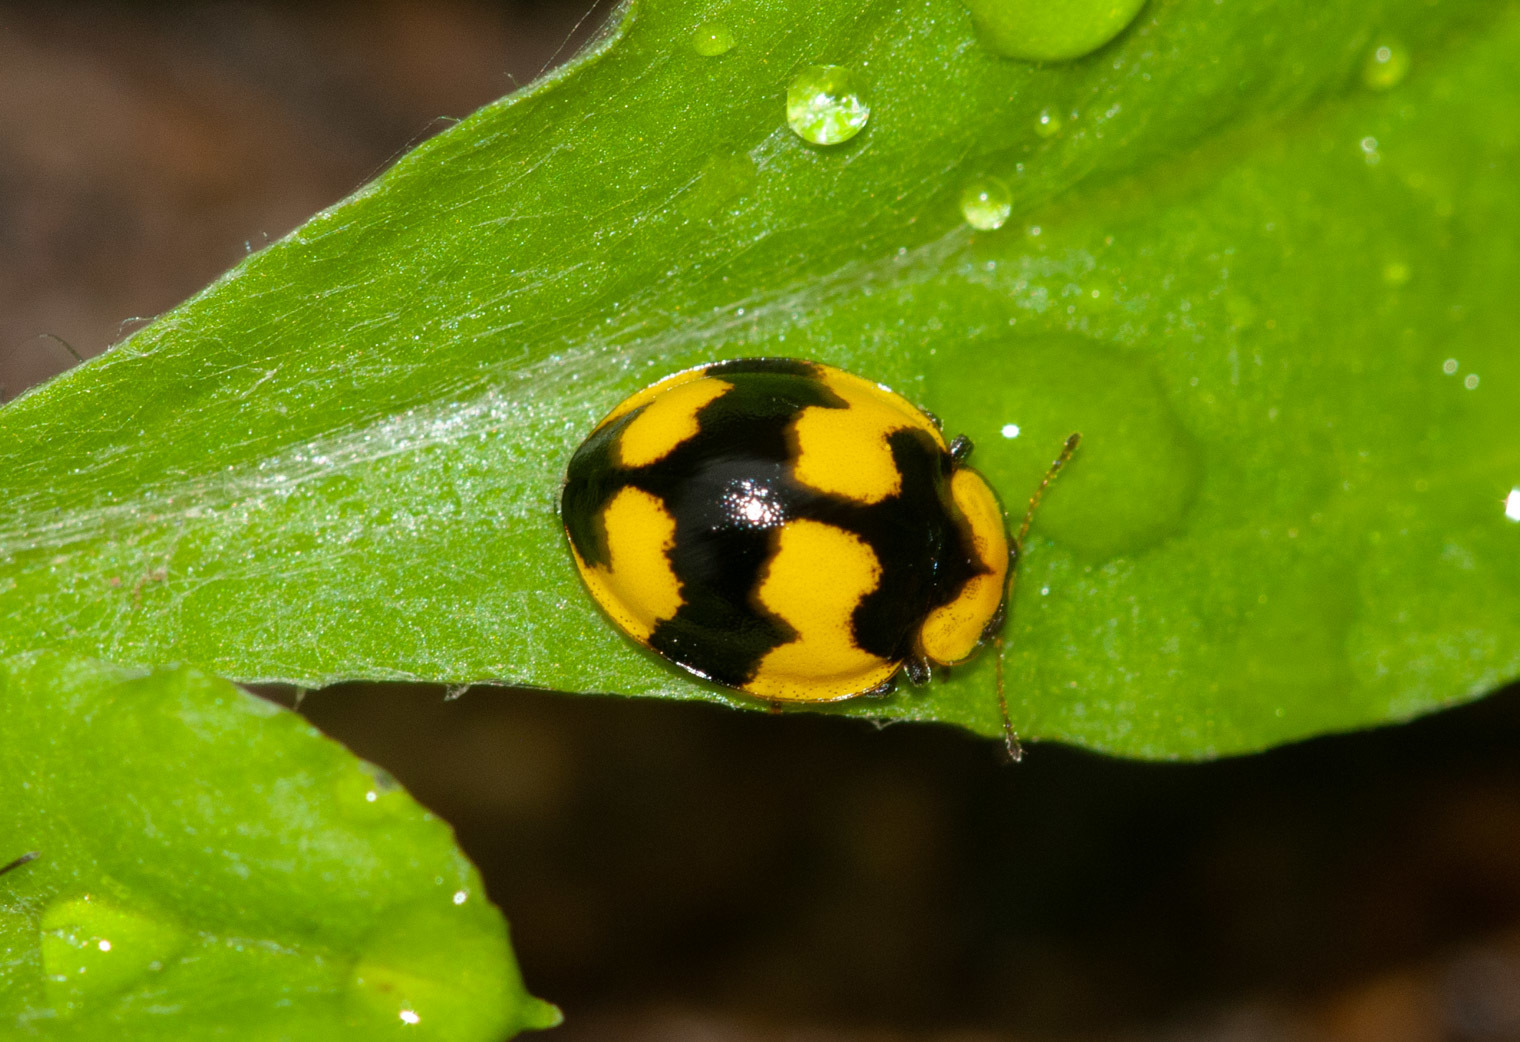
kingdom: Animalia
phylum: Arthropoda
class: Insecta
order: Coleoptera
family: Coccinellidae
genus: Illeis
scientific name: Illeis galbula
